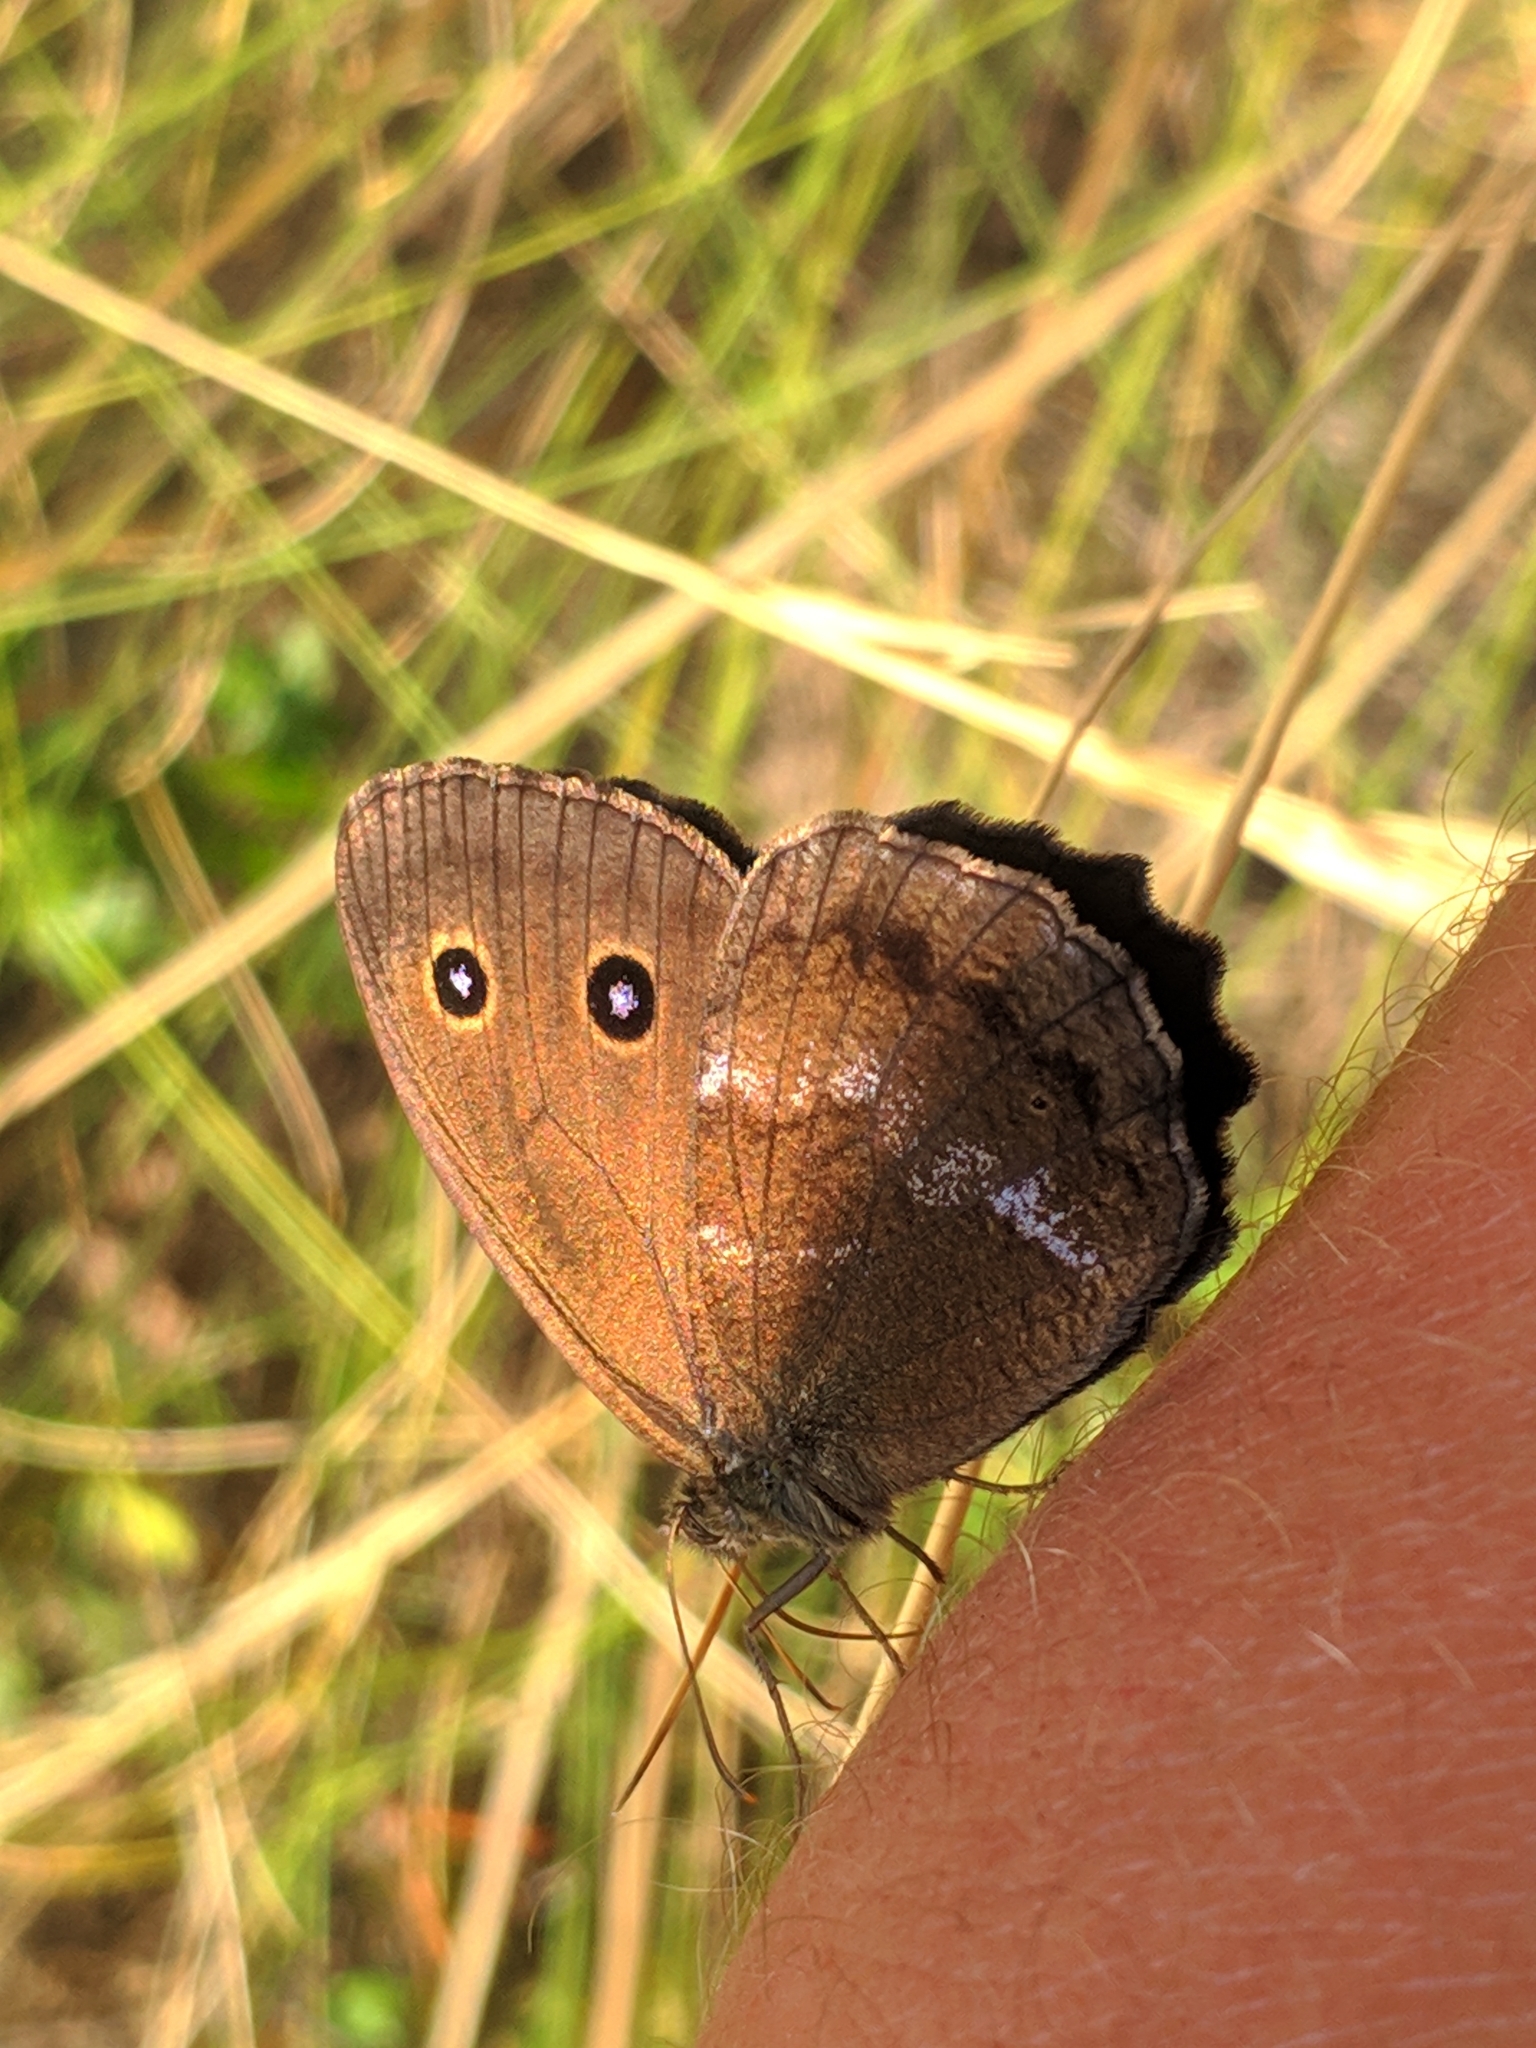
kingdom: Animalia
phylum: Arthropoda
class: Insecta
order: Lepidoptera
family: Nymphalidae
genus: Minois
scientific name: Minois dryas
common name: Dryad
